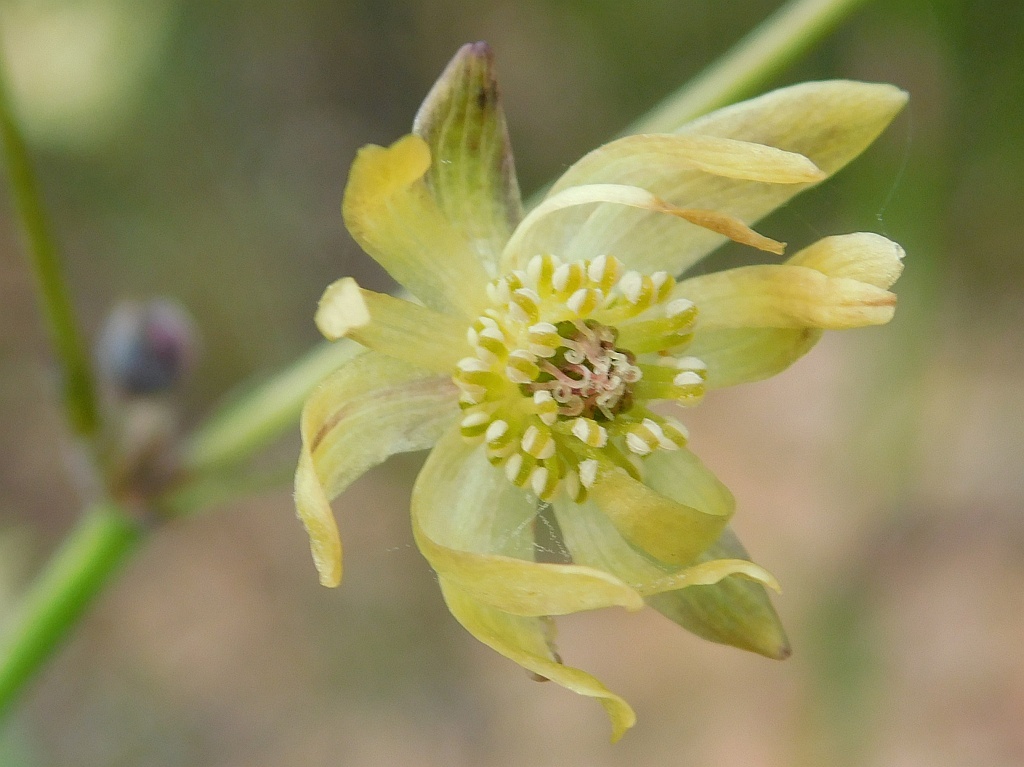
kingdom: Plantae
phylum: Tracheophyta
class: Magnoliopsida
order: Ranunculales
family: Ranunculaceae
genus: Knowltonia
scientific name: Knowltonia anemonoides
